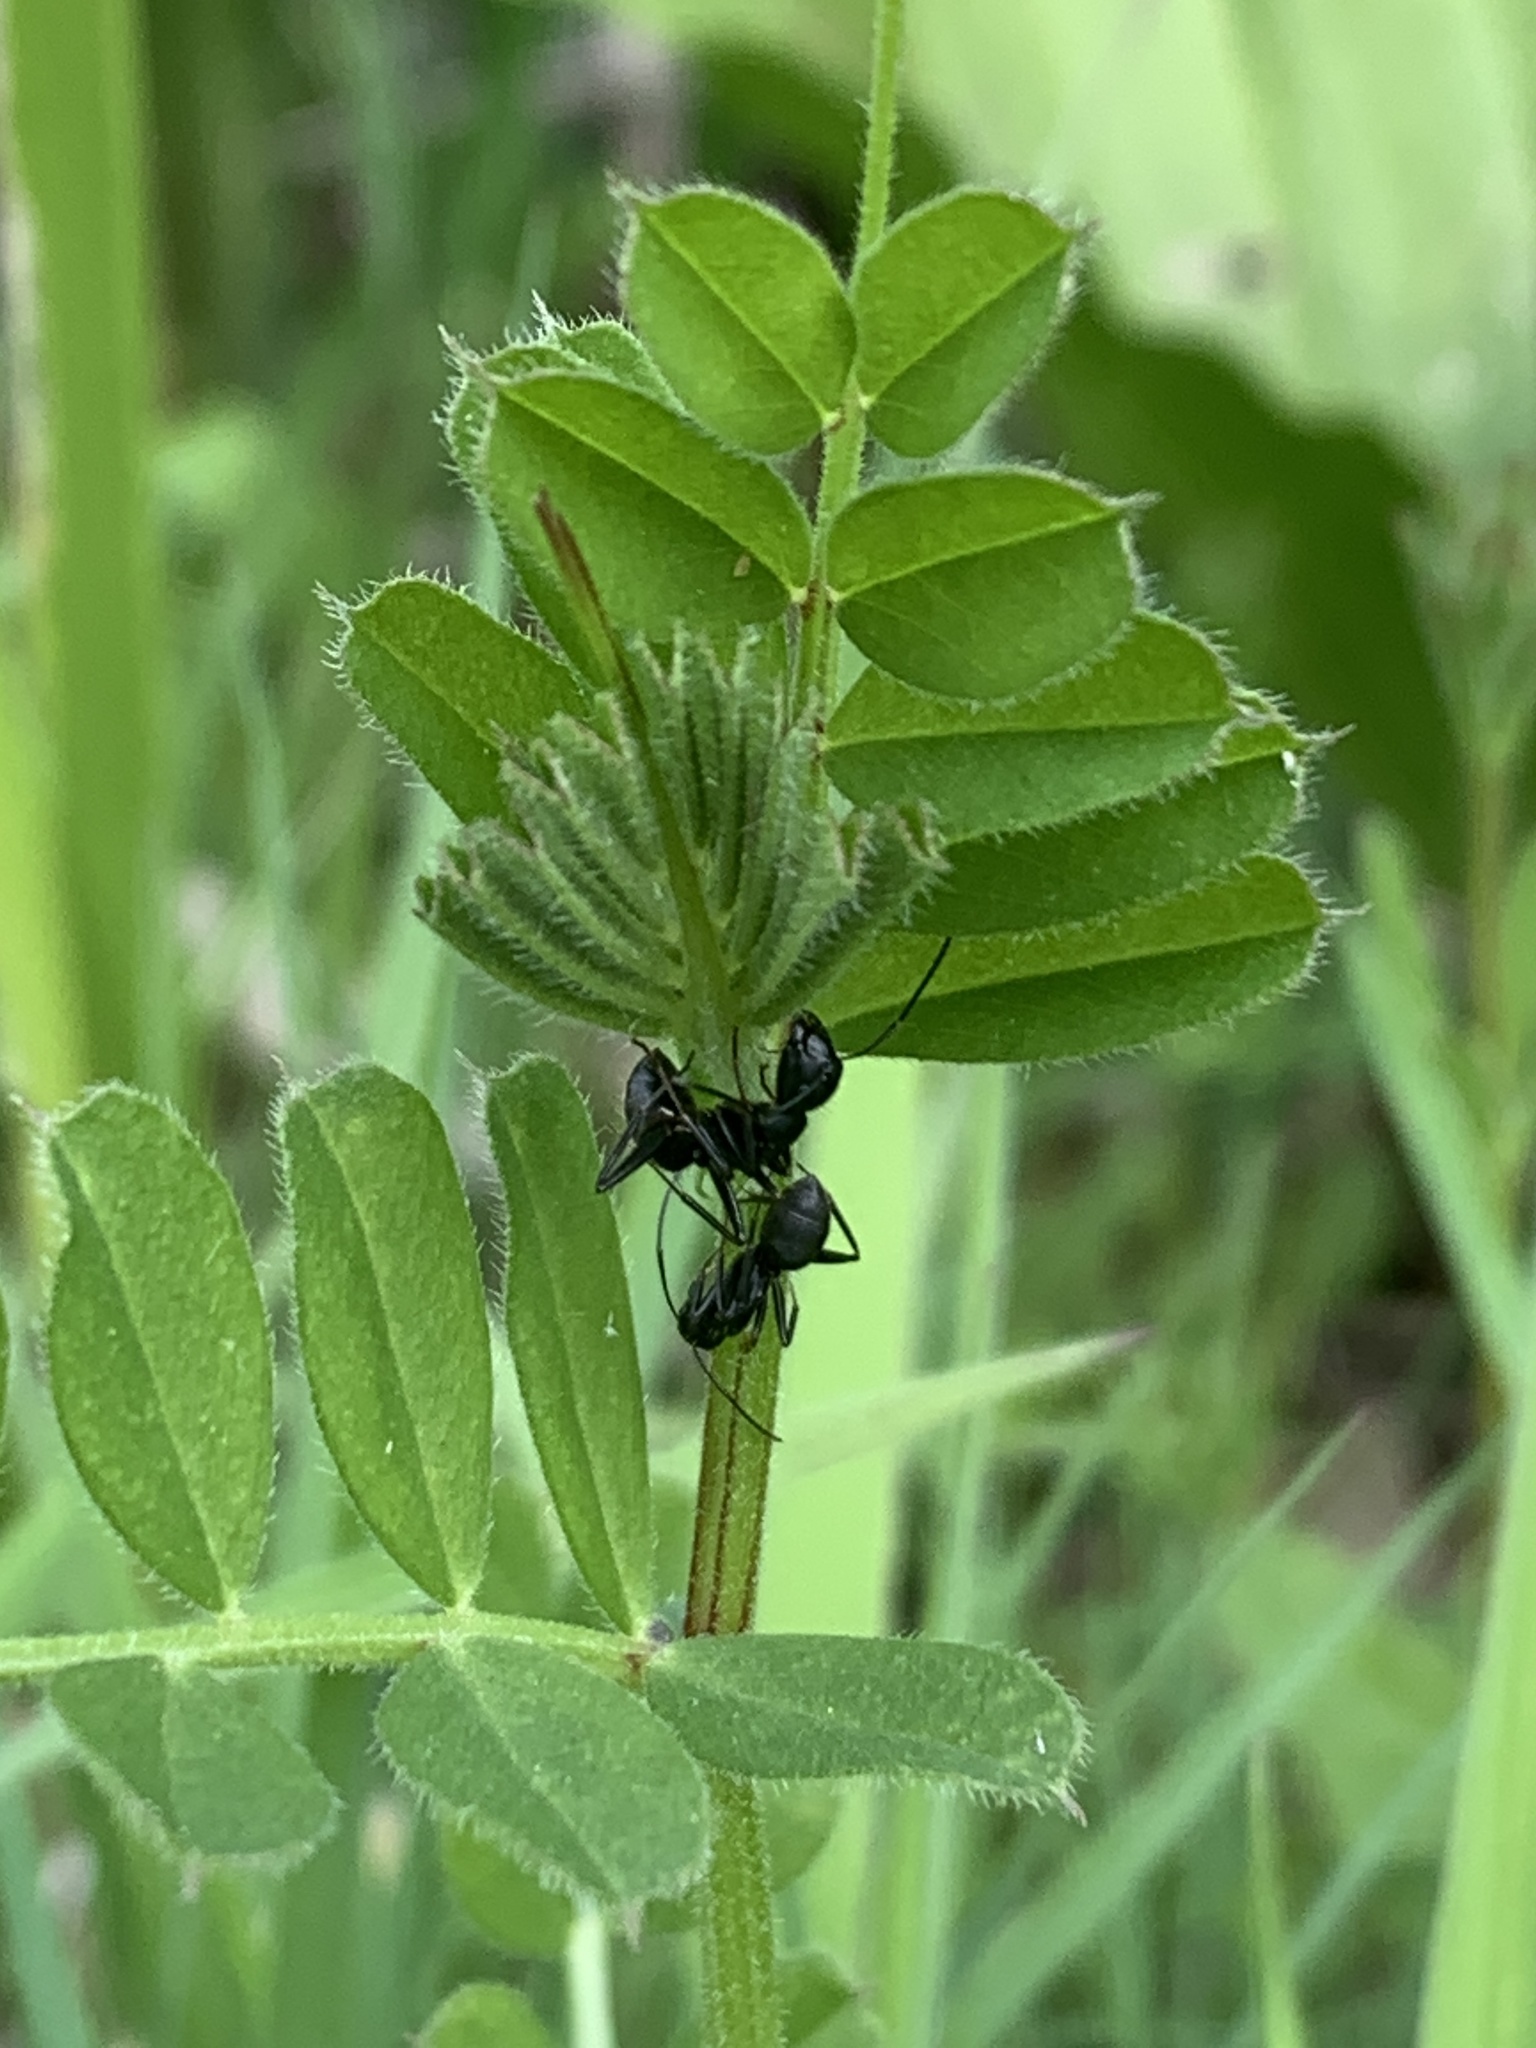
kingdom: Animalia
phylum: Arthropoda
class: Insecta
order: Hymenoptera
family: Formicidae
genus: Camponotus
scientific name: Camponotus pennsylvanicus
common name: Black carpenter ant
